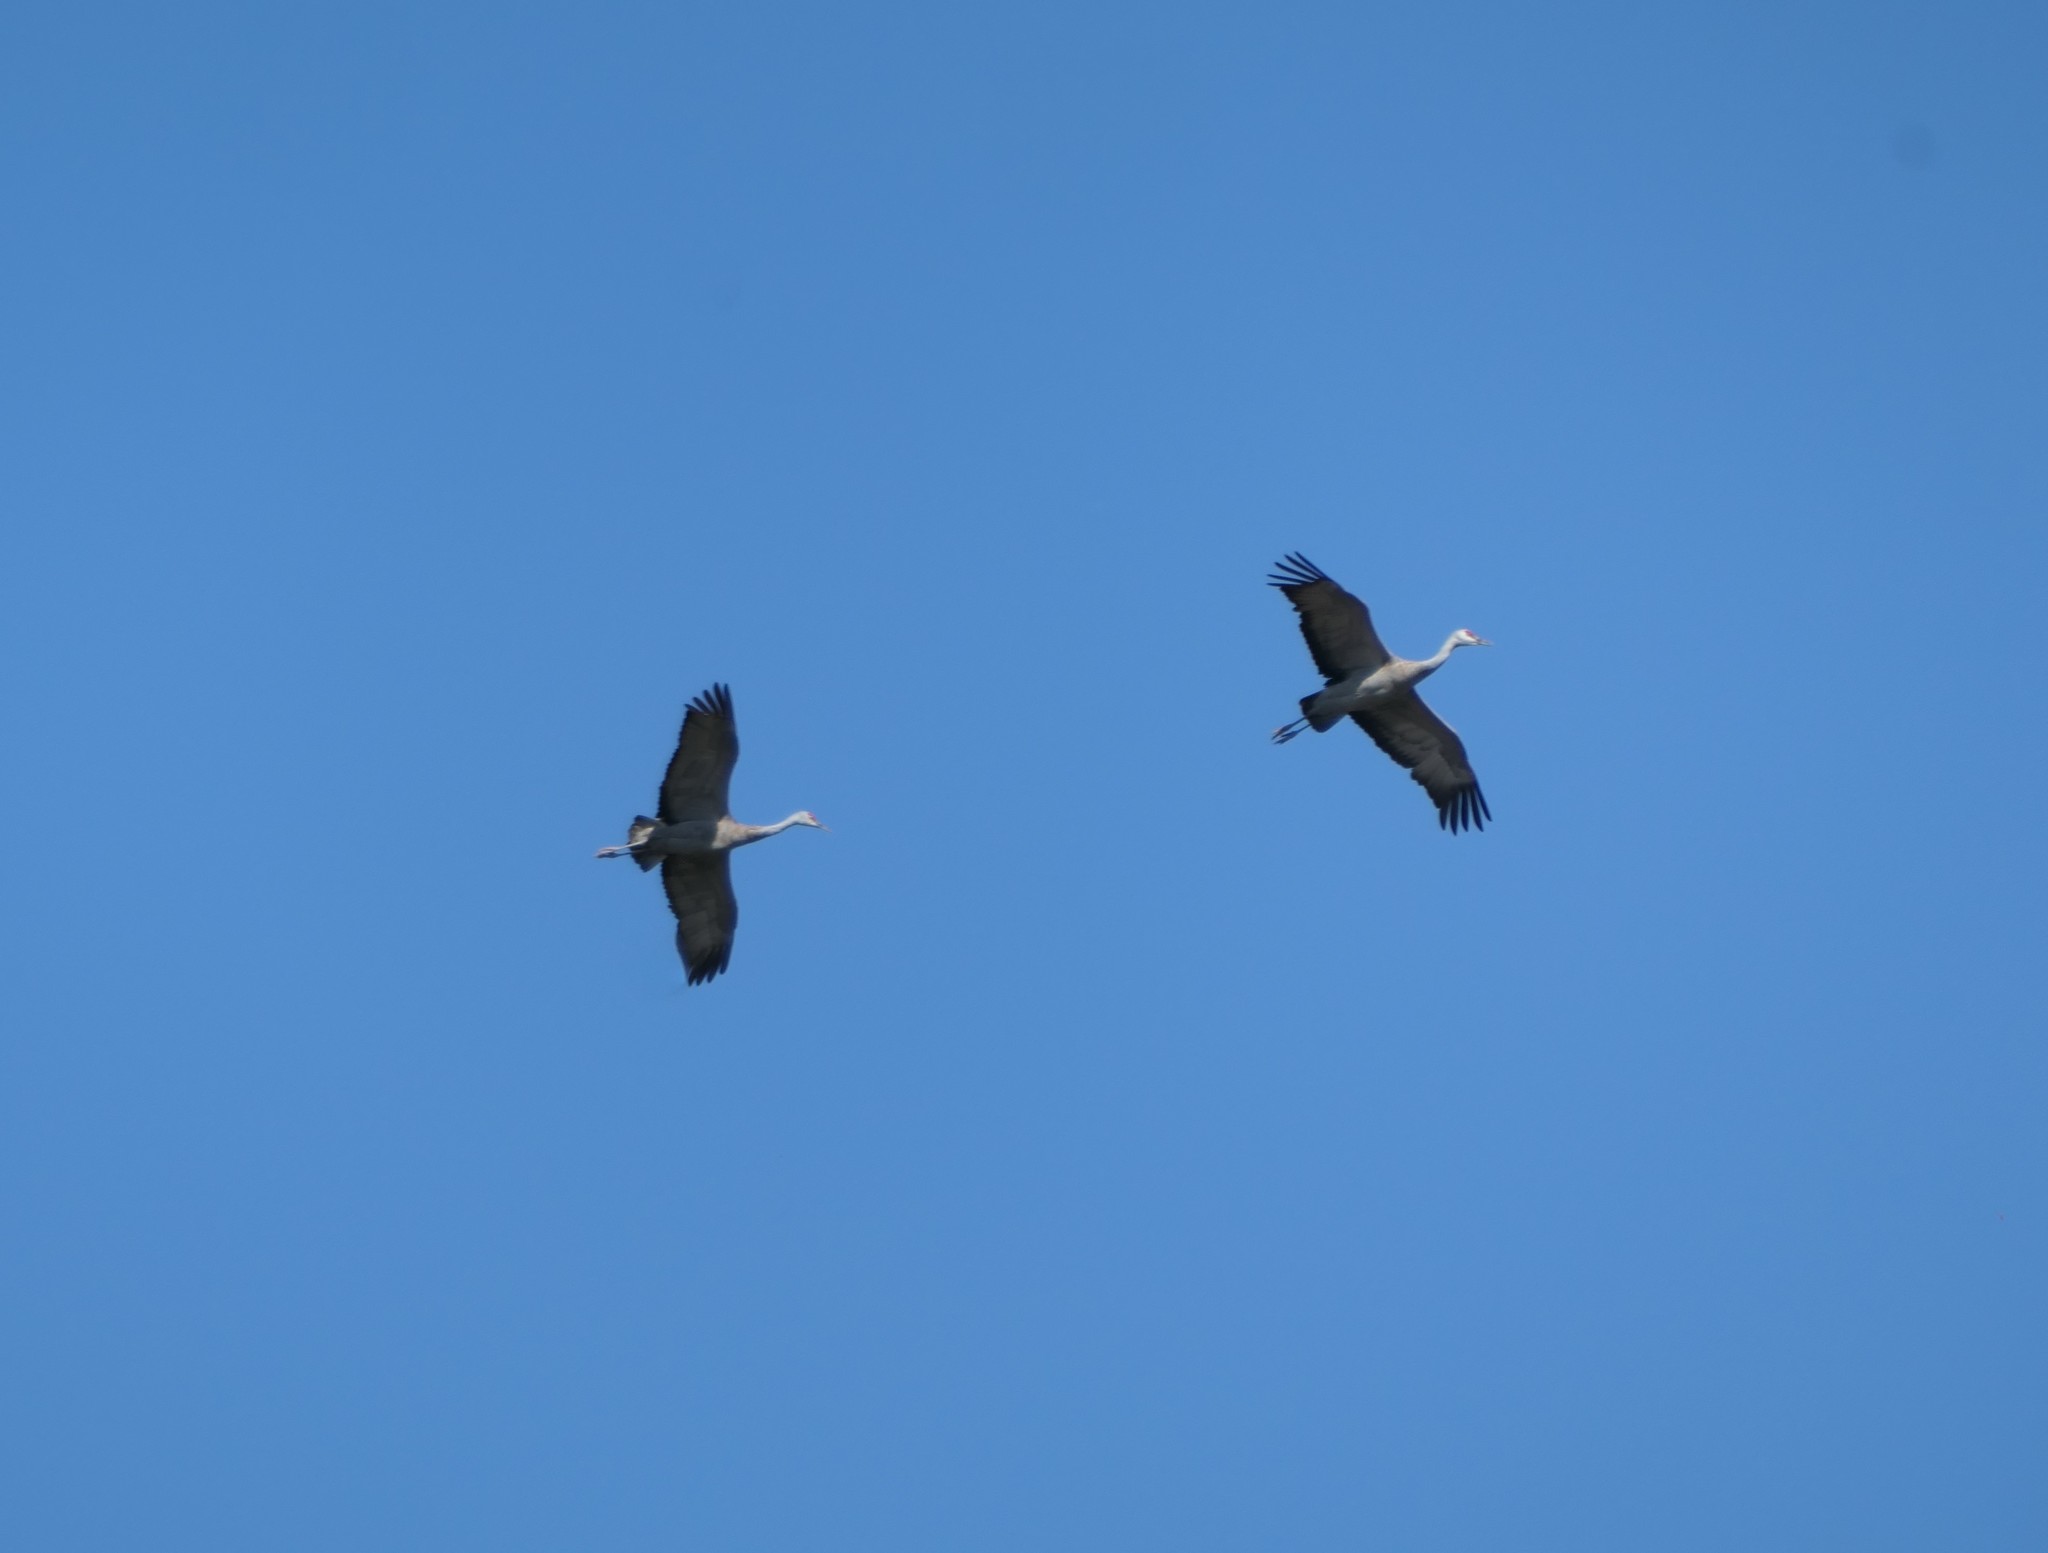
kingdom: Animalia
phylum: Chordata
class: Aves
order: Gruiformes
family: Gruidae
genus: Grus
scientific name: Grus canadensis
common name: Sandhill crane
